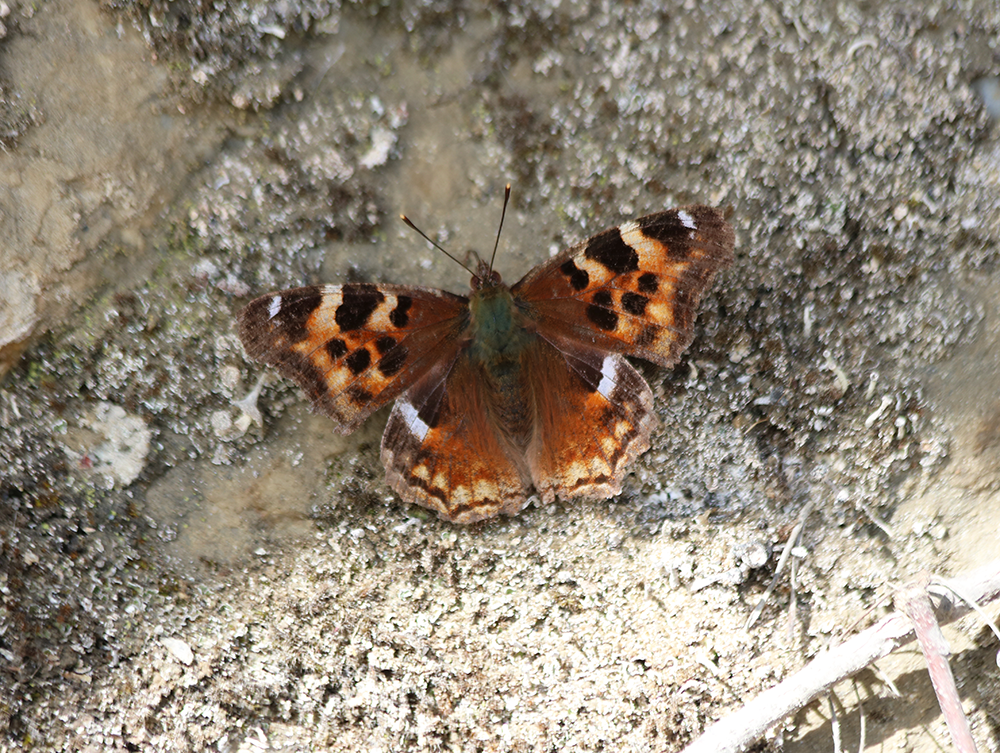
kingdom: Animalia
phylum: Arthropoda
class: Insecta
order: Lepidoptera
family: Nymphalidae
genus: Polygonia
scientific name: Polygonia vaualbum
